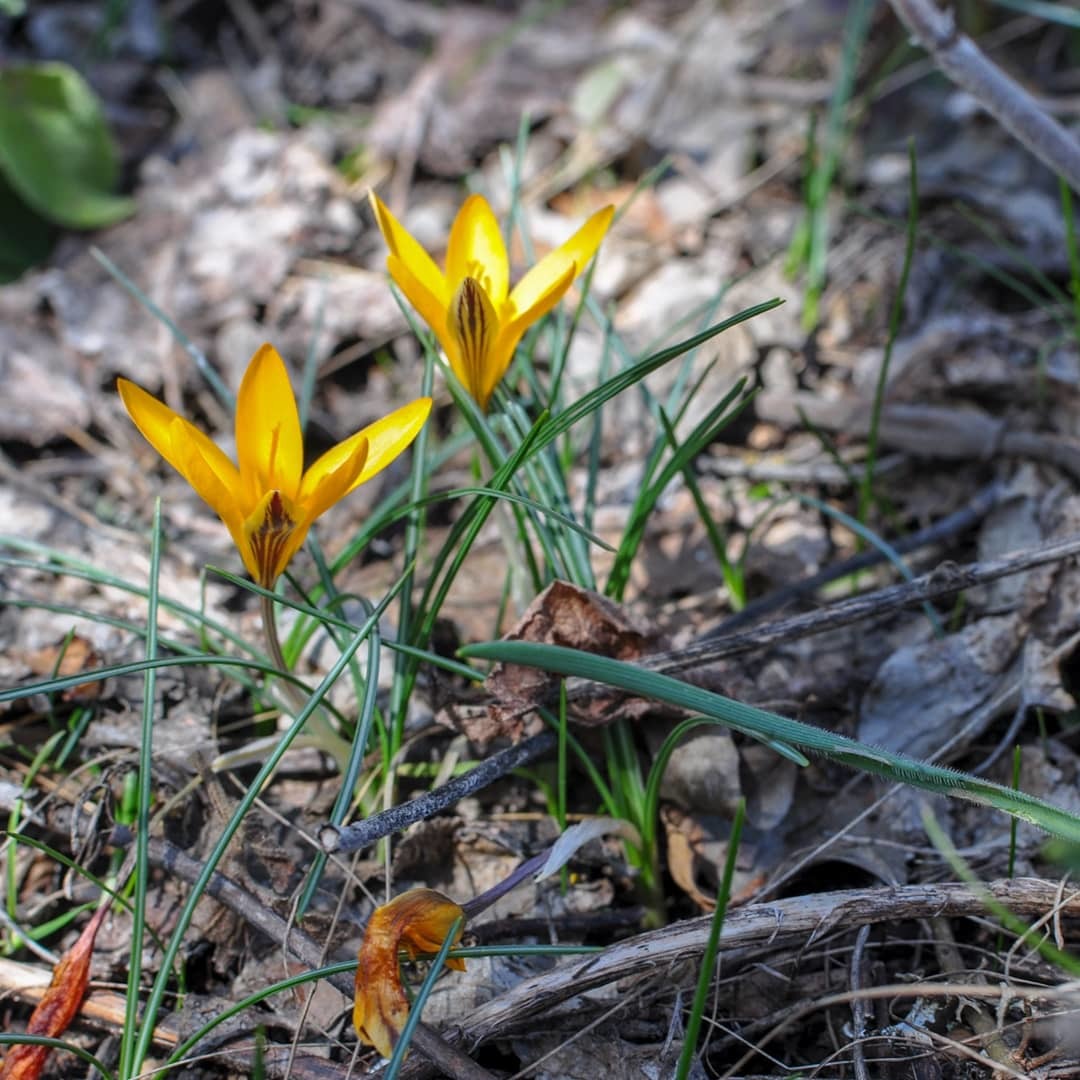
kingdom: Plantae
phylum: Tracheophyta
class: Liliopsida
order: Asparagales
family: Iridaceae
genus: Crocus
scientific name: Crocus angustifolius
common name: Cloth of gold
